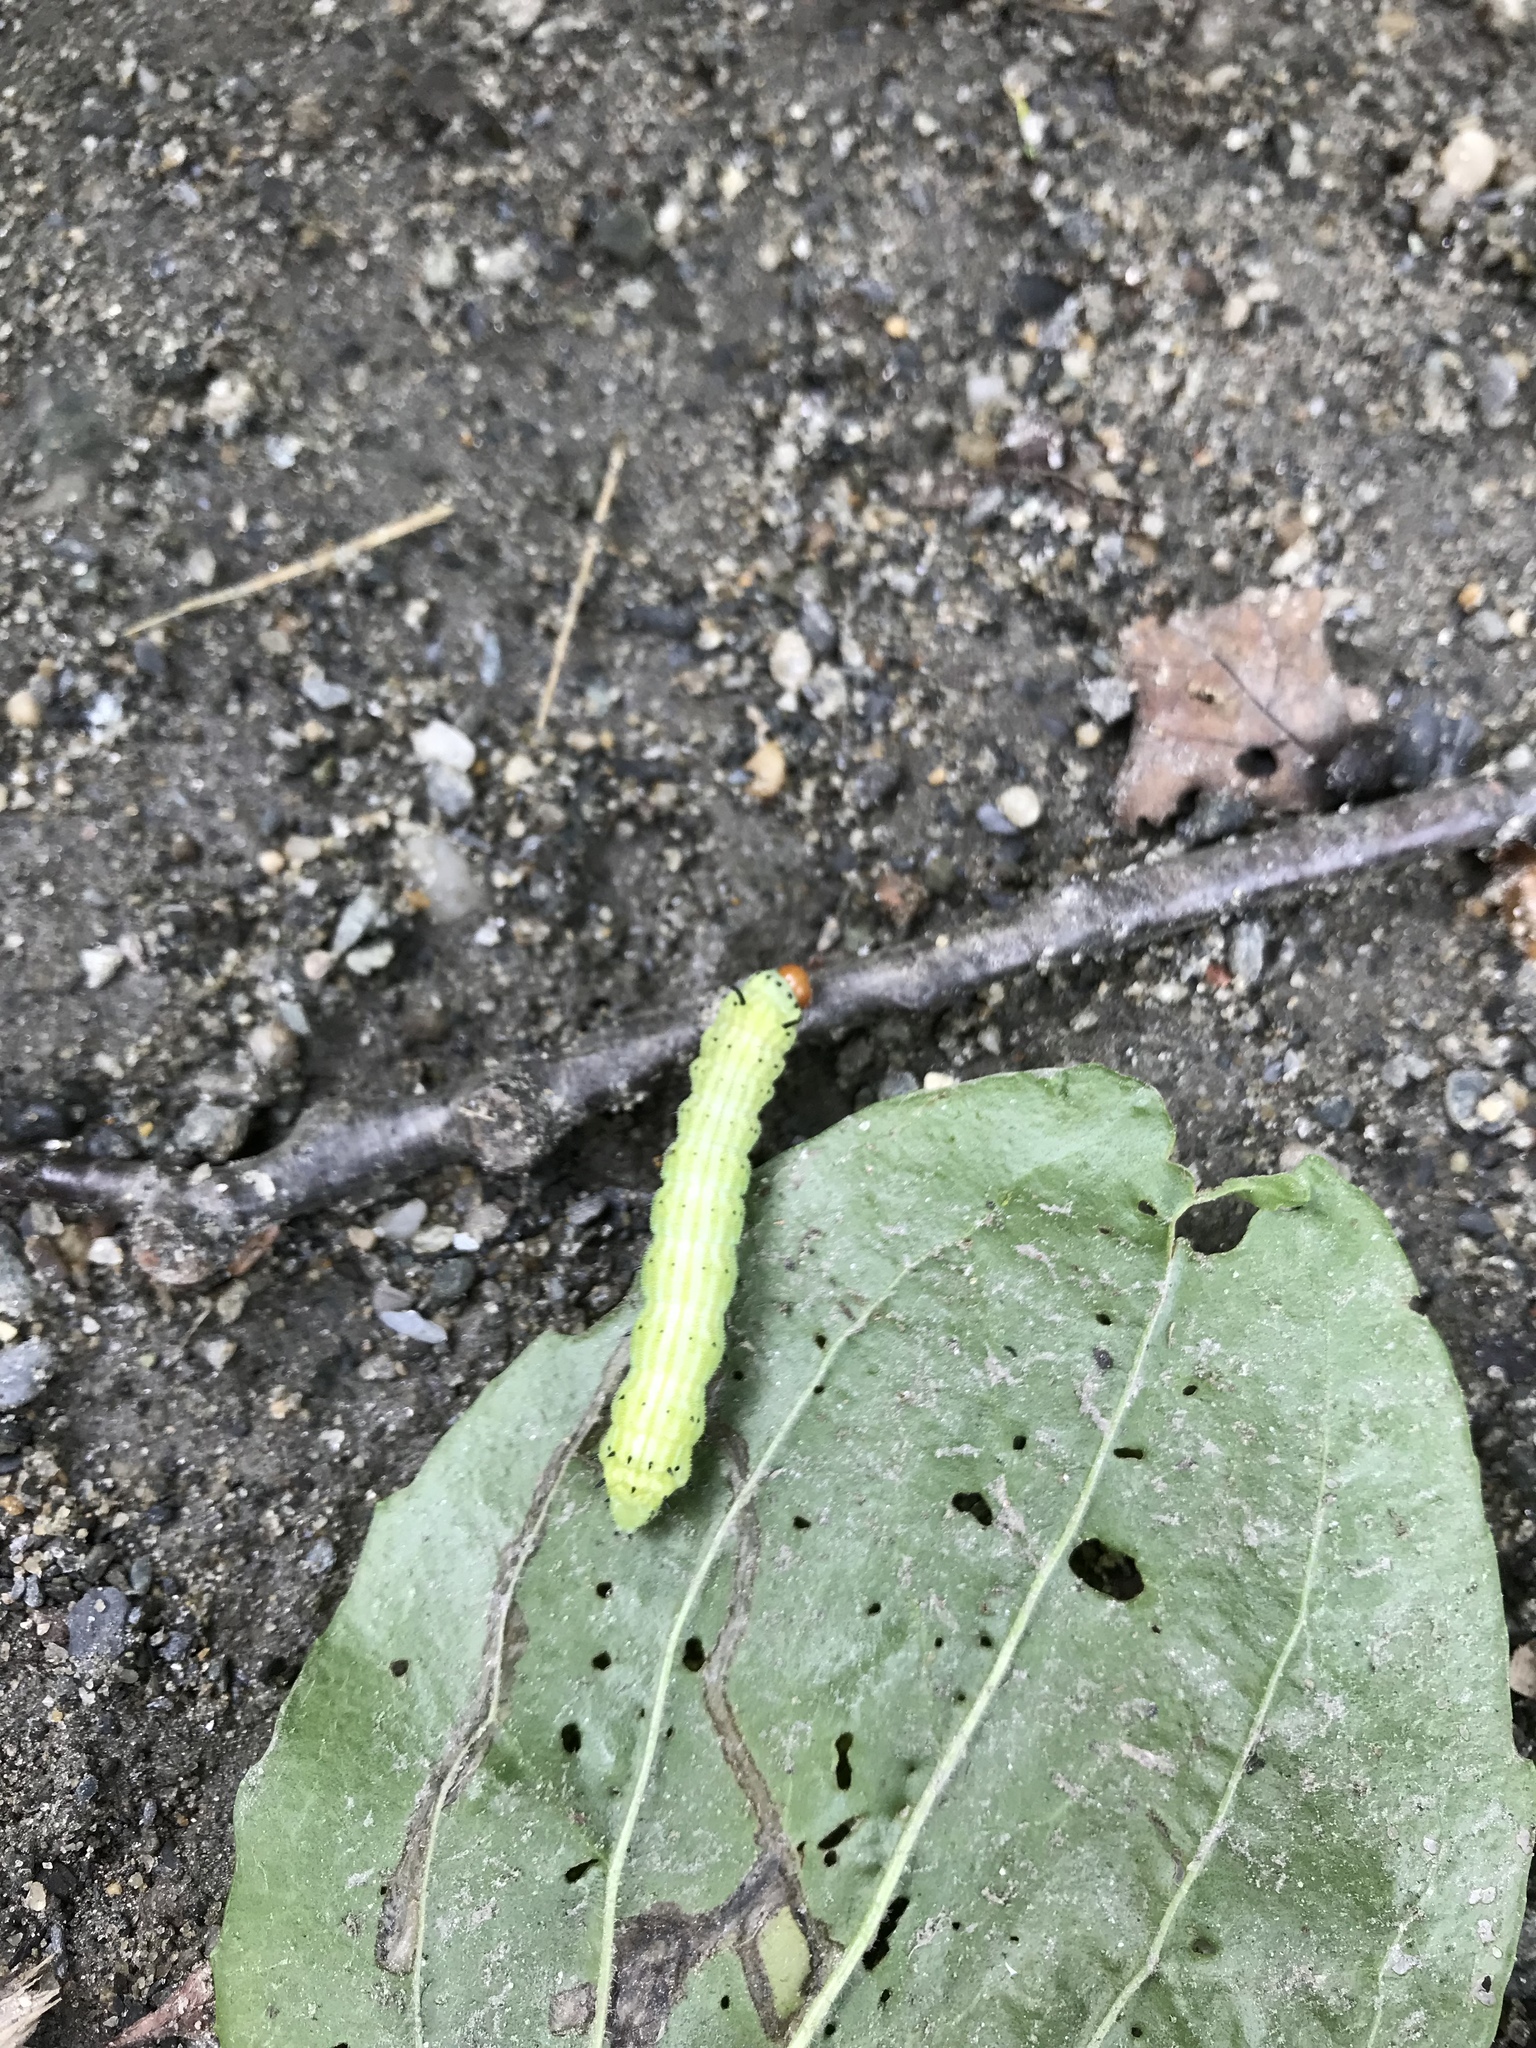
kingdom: Animalia
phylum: Arthropoda
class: Insecta
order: Lepidoptera
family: Saturniidae
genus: Dryocampa
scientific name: Dryocampa rubicunda
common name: Rosy maple moth
